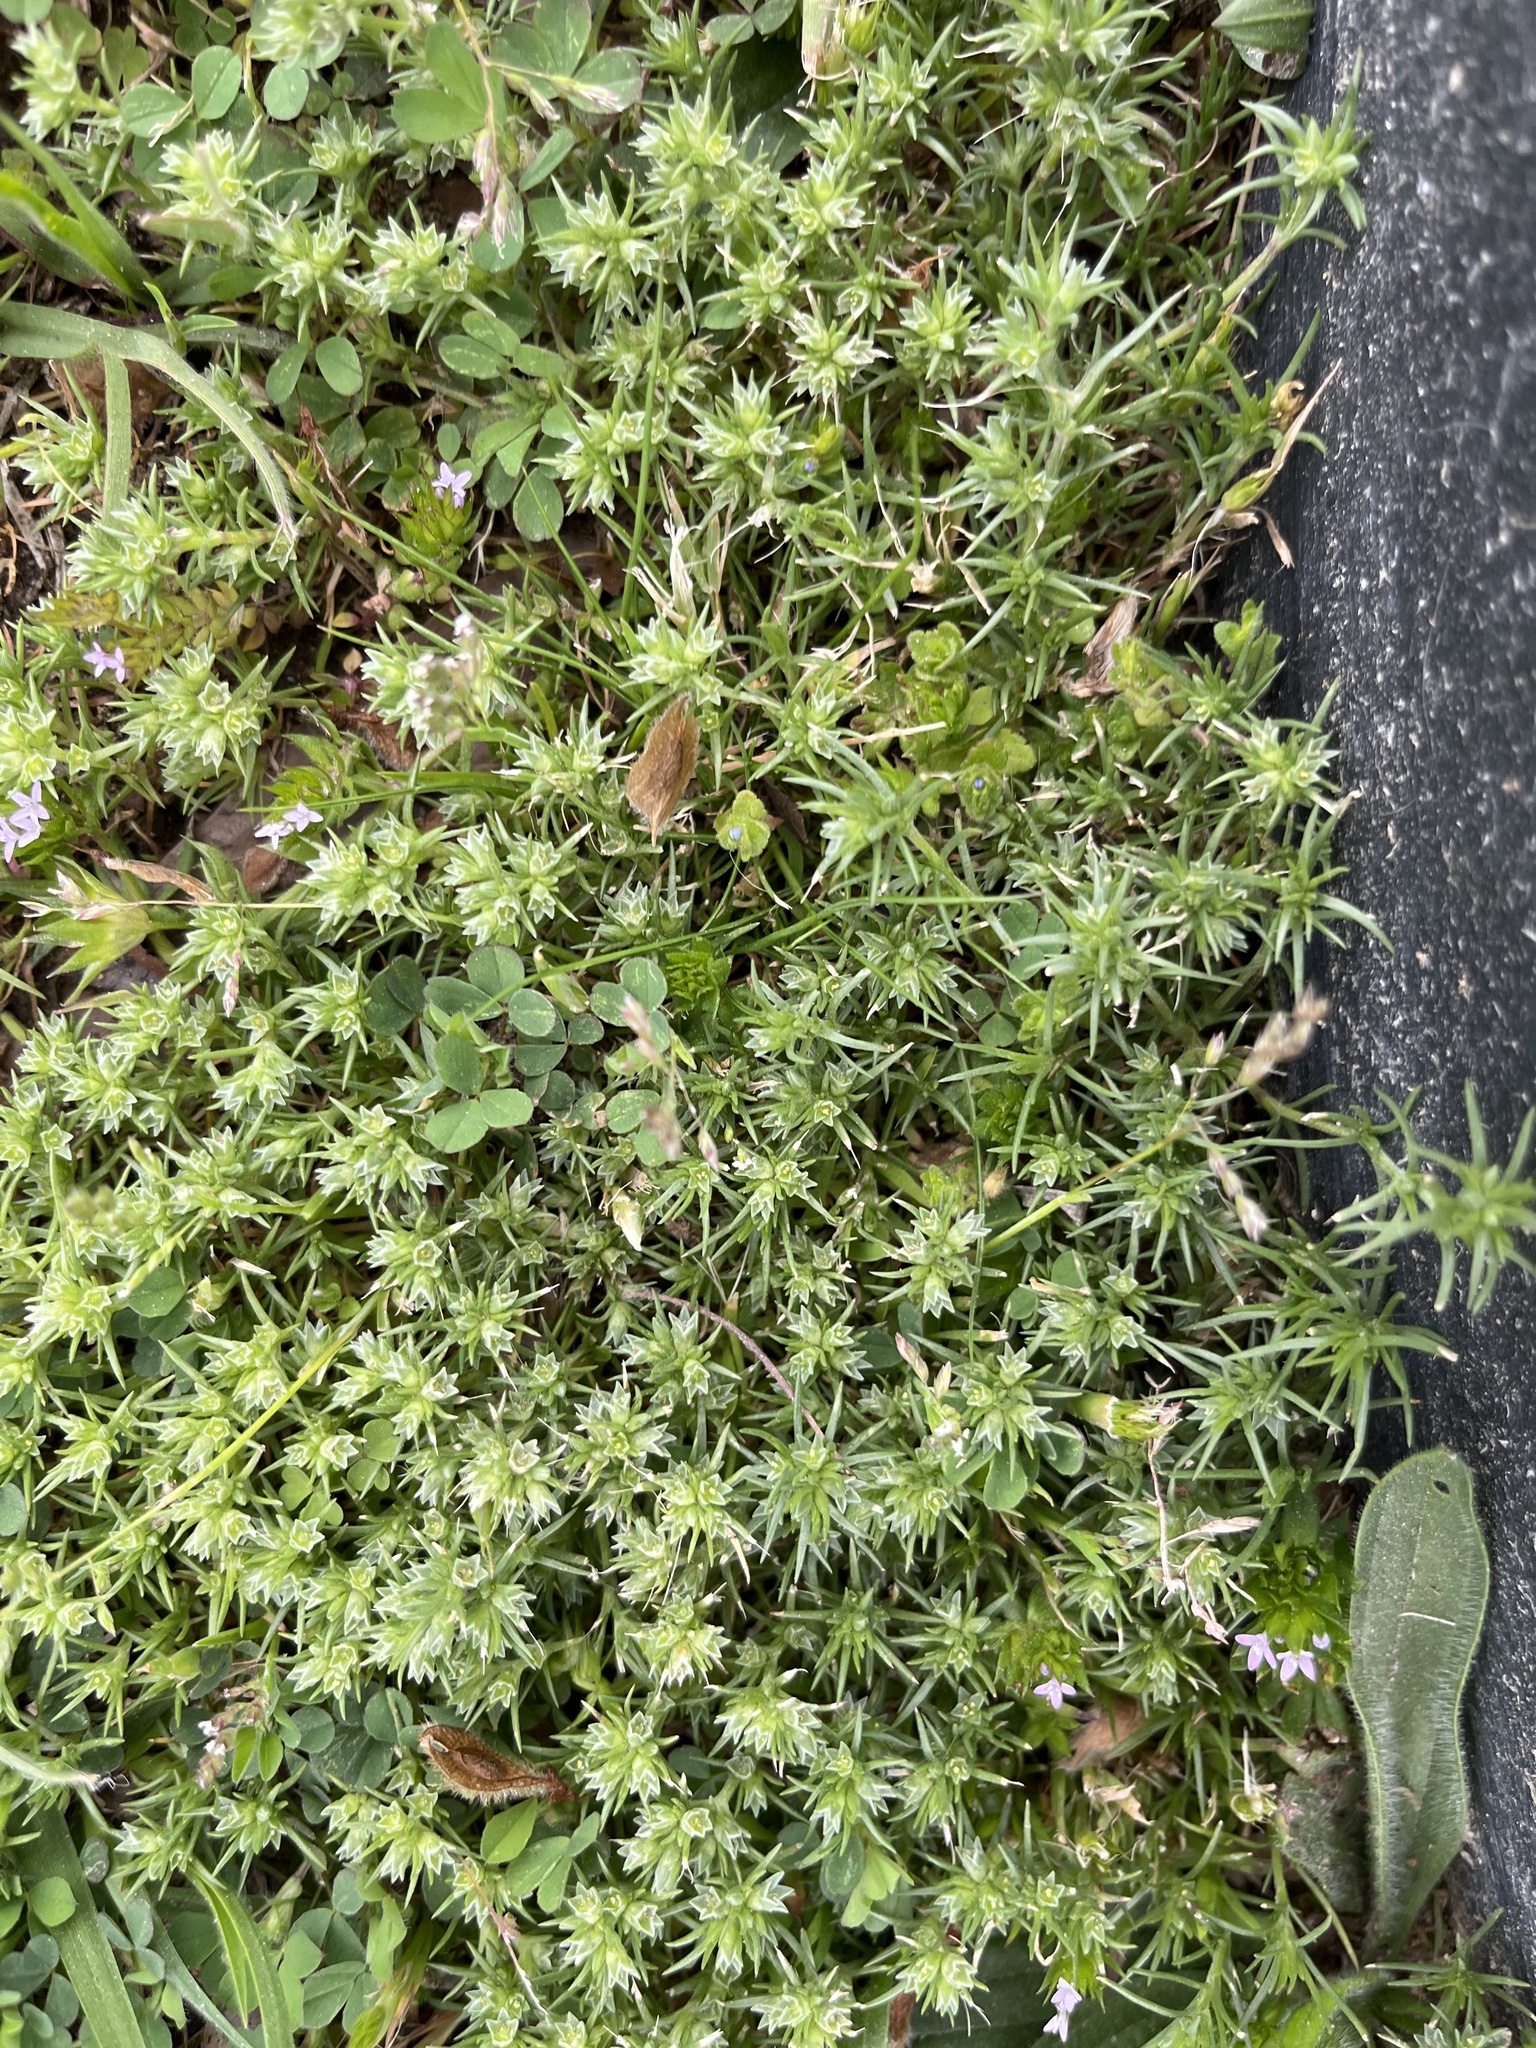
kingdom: Plantae
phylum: Tracheophyta
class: Magnoliopsida
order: Caryophyllales
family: Caryophyllaceae
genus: Scleranthus
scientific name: Scleranthus annuus
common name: Annual knawel
